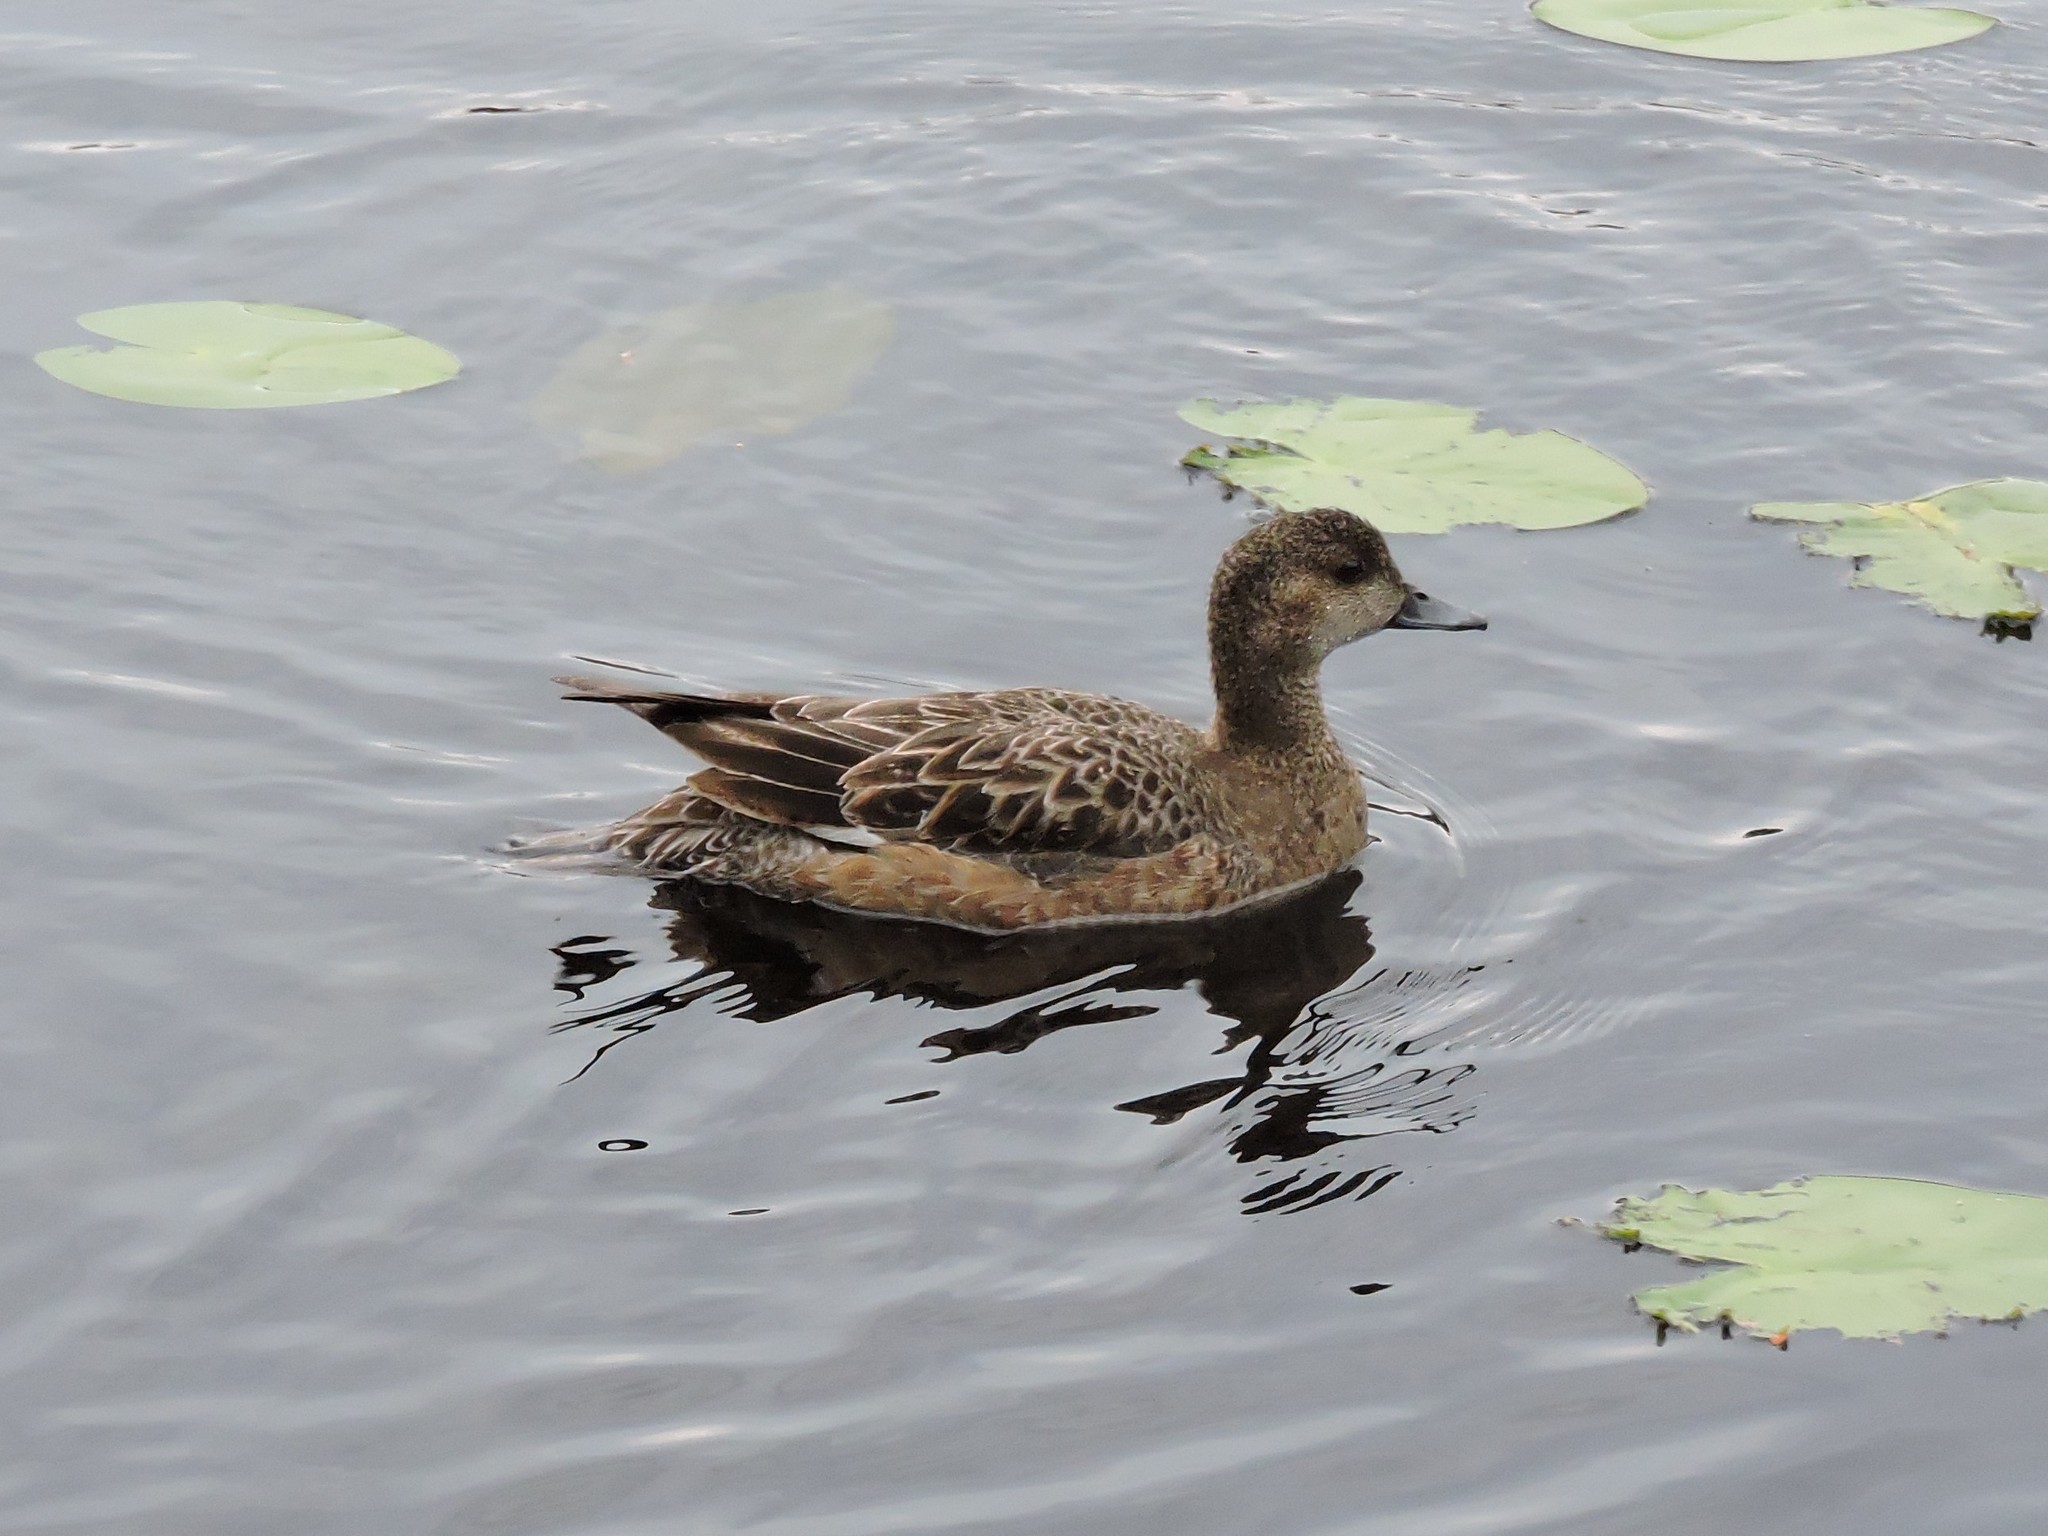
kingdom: Animalia
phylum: Chordata
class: Aves
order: Anseriformes
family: Anatidae
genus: Mareca
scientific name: Mareca penelope
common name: Eurasian wigeon
